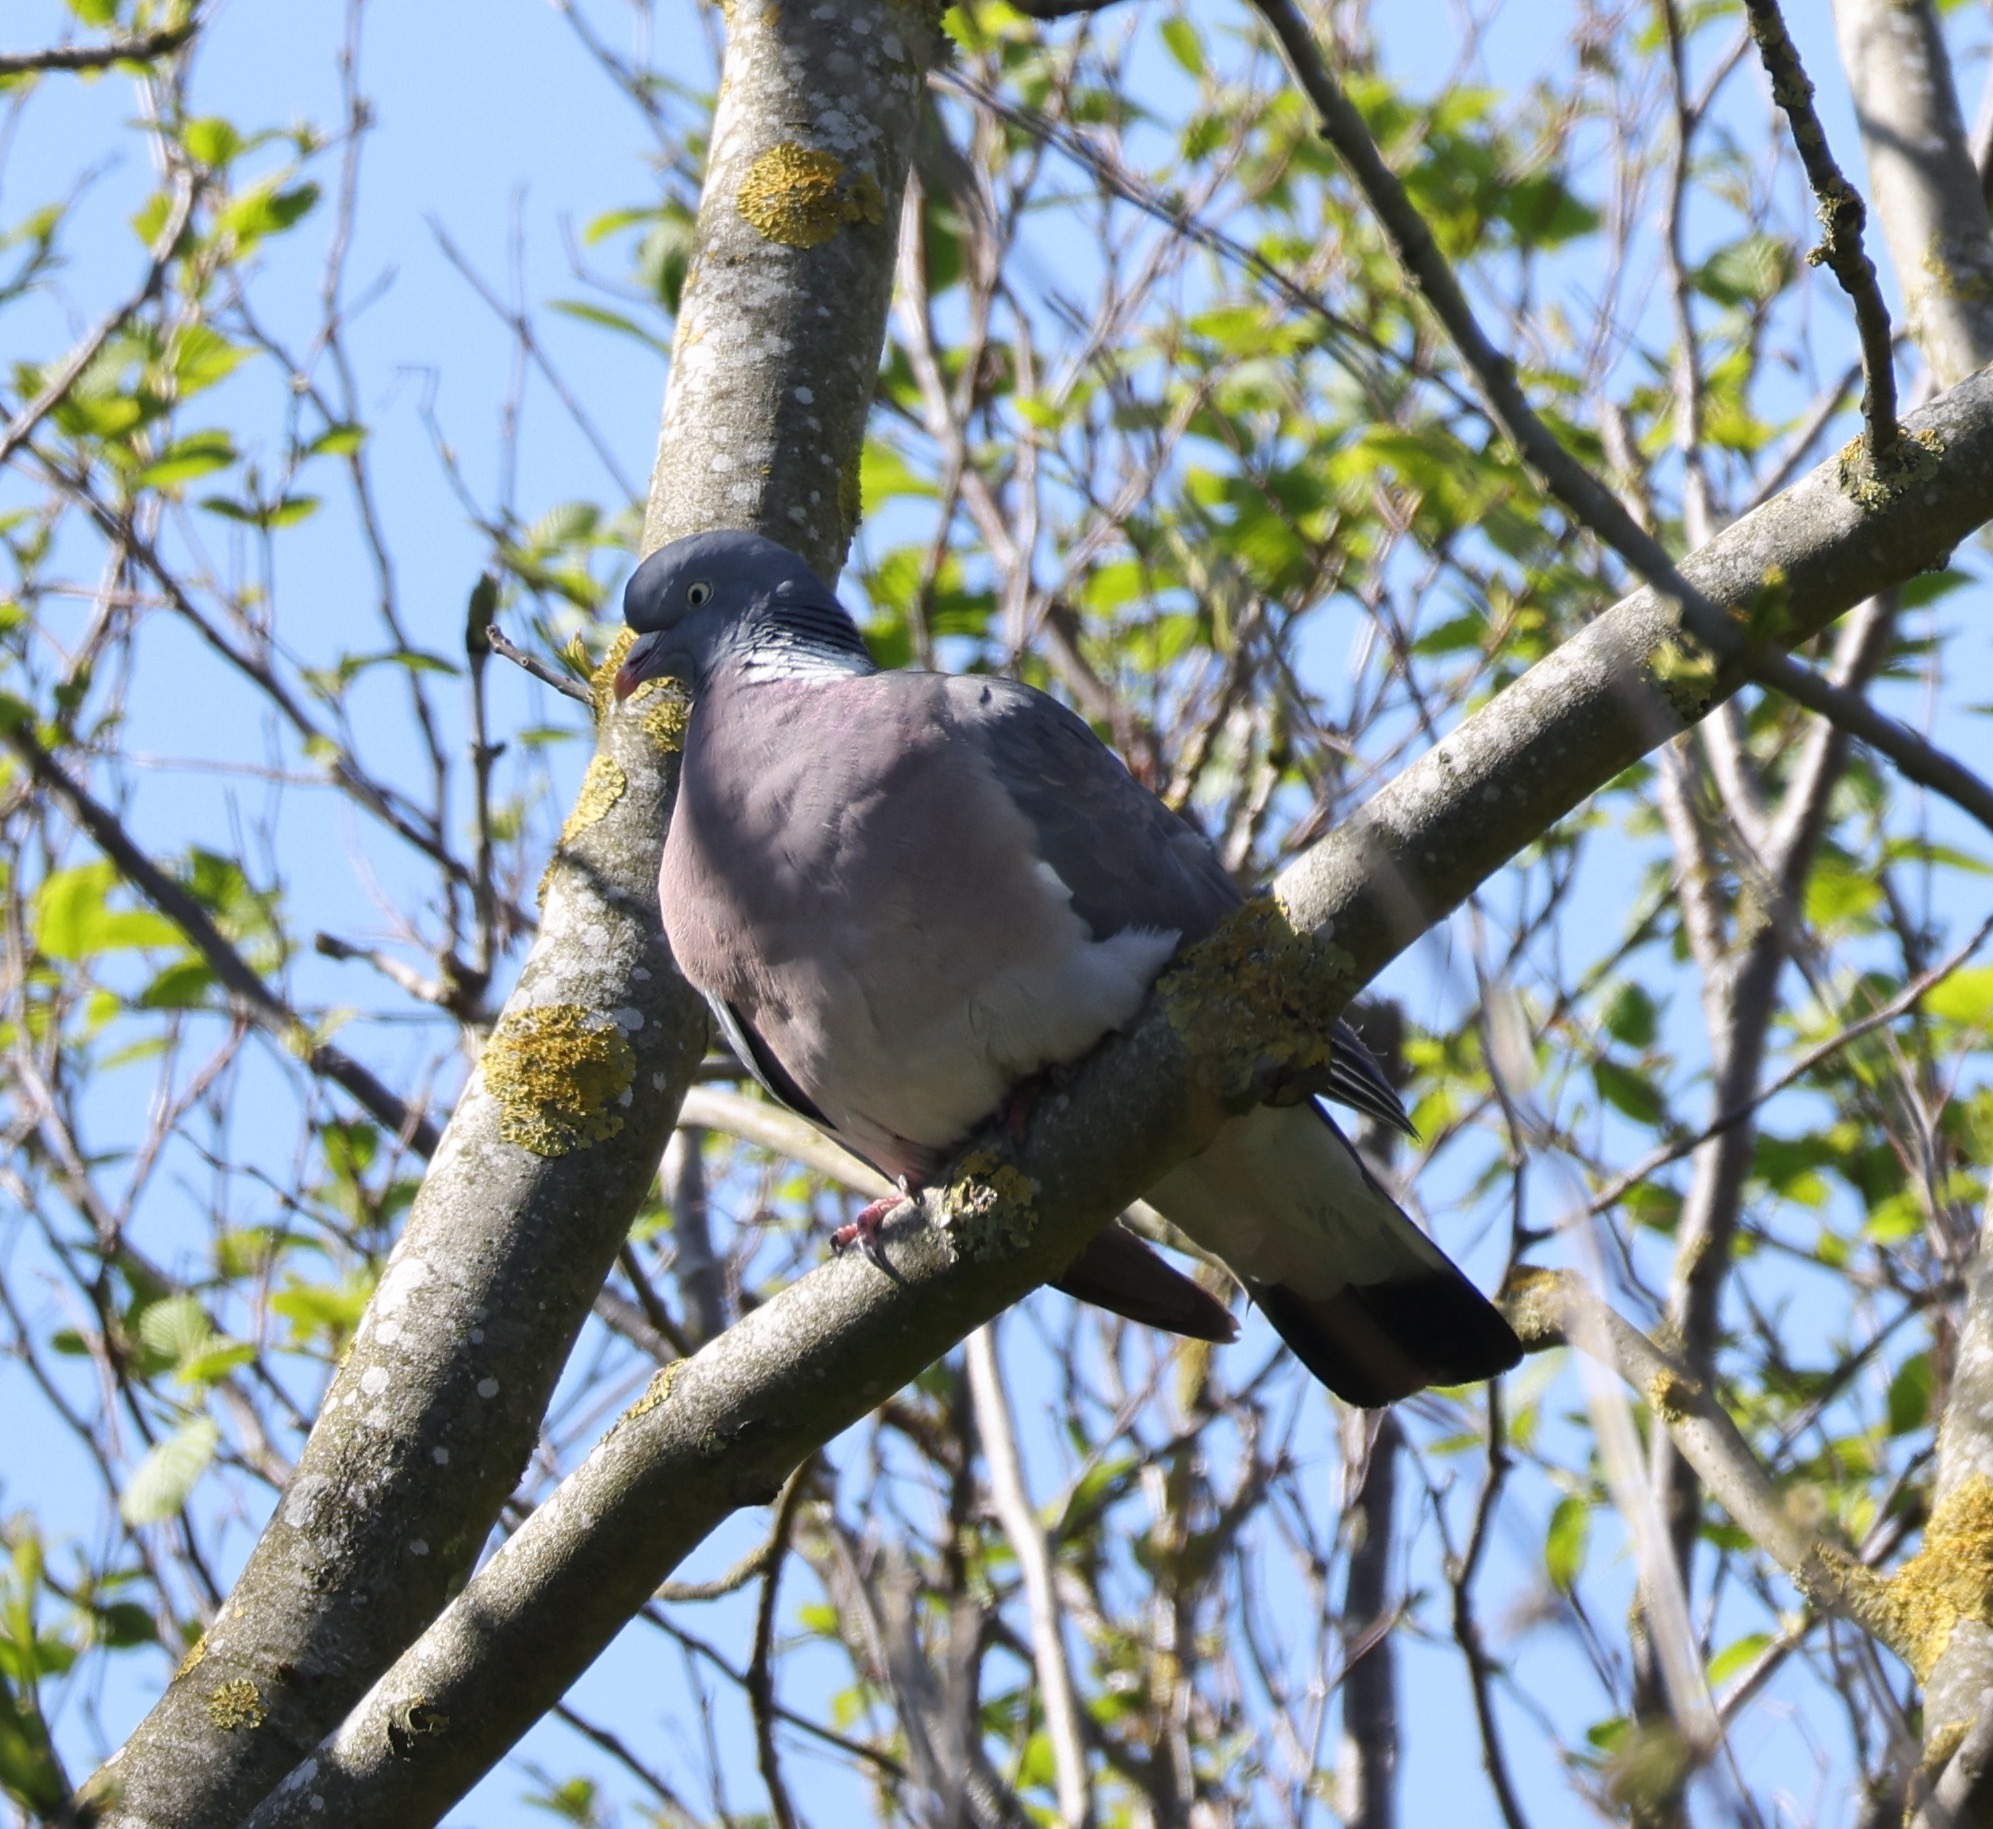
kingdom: Animalia
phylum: Chordata
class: Aves
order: Columbiformes
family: Columbidae
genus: Columba
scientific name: Columba palumbus
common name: Common wood pigeon
